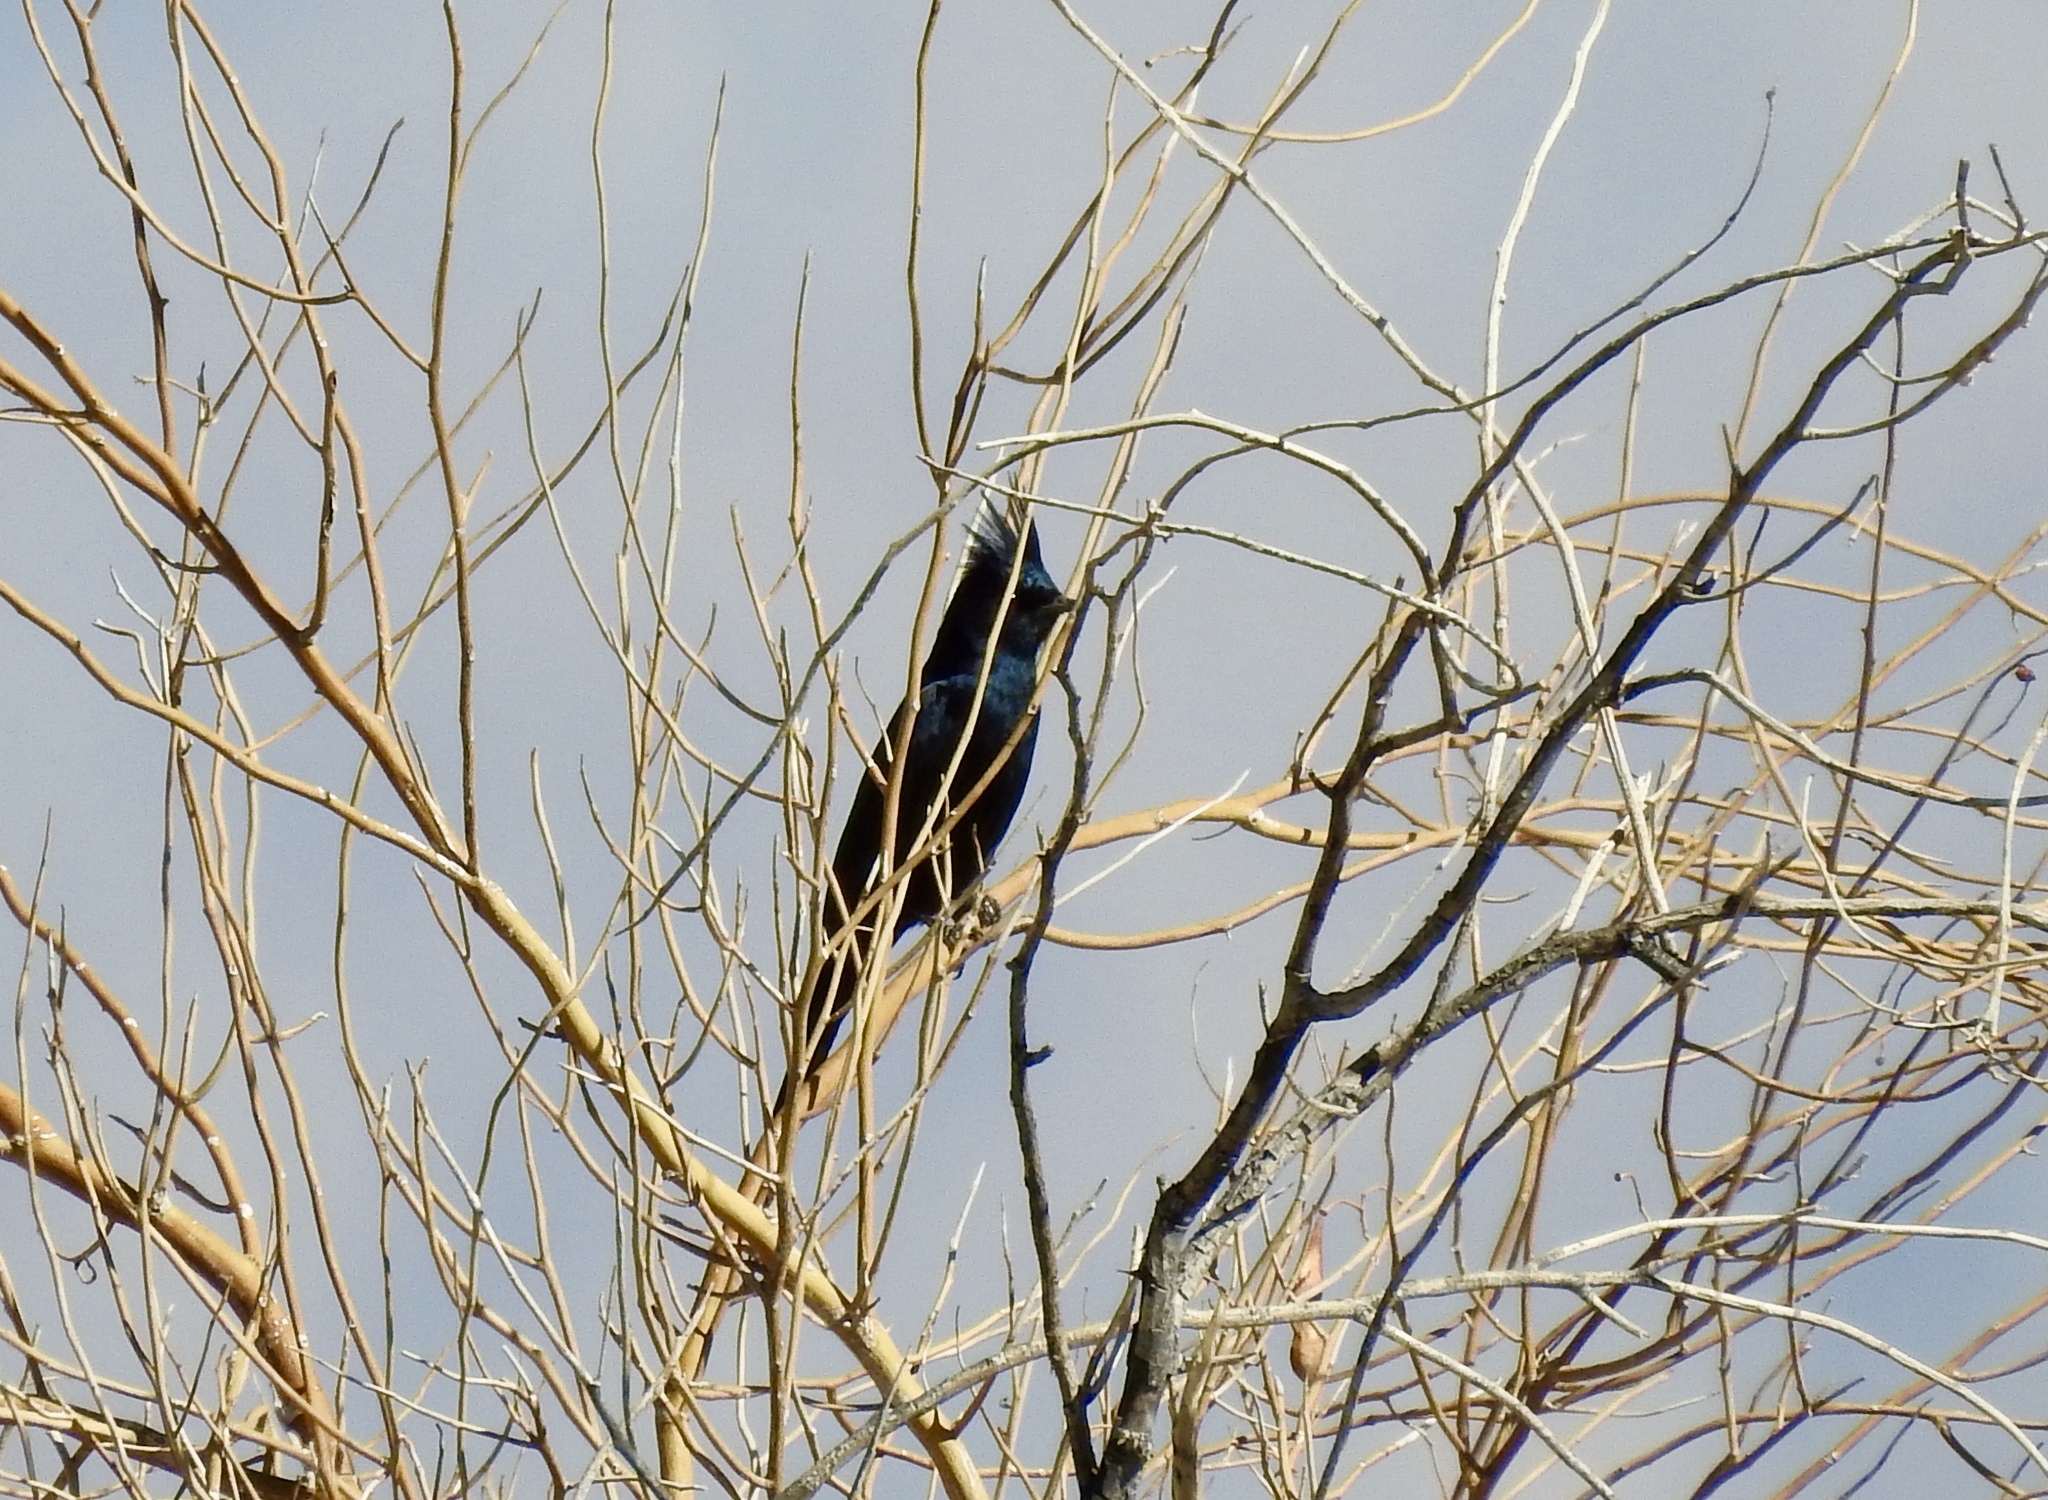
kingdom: Animalia
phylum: Chordata
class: Aves
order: Passeriformes
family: Ptilogonatidae
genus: Phainopepla
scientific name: Phainopepla nitens
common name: Phainopepla
